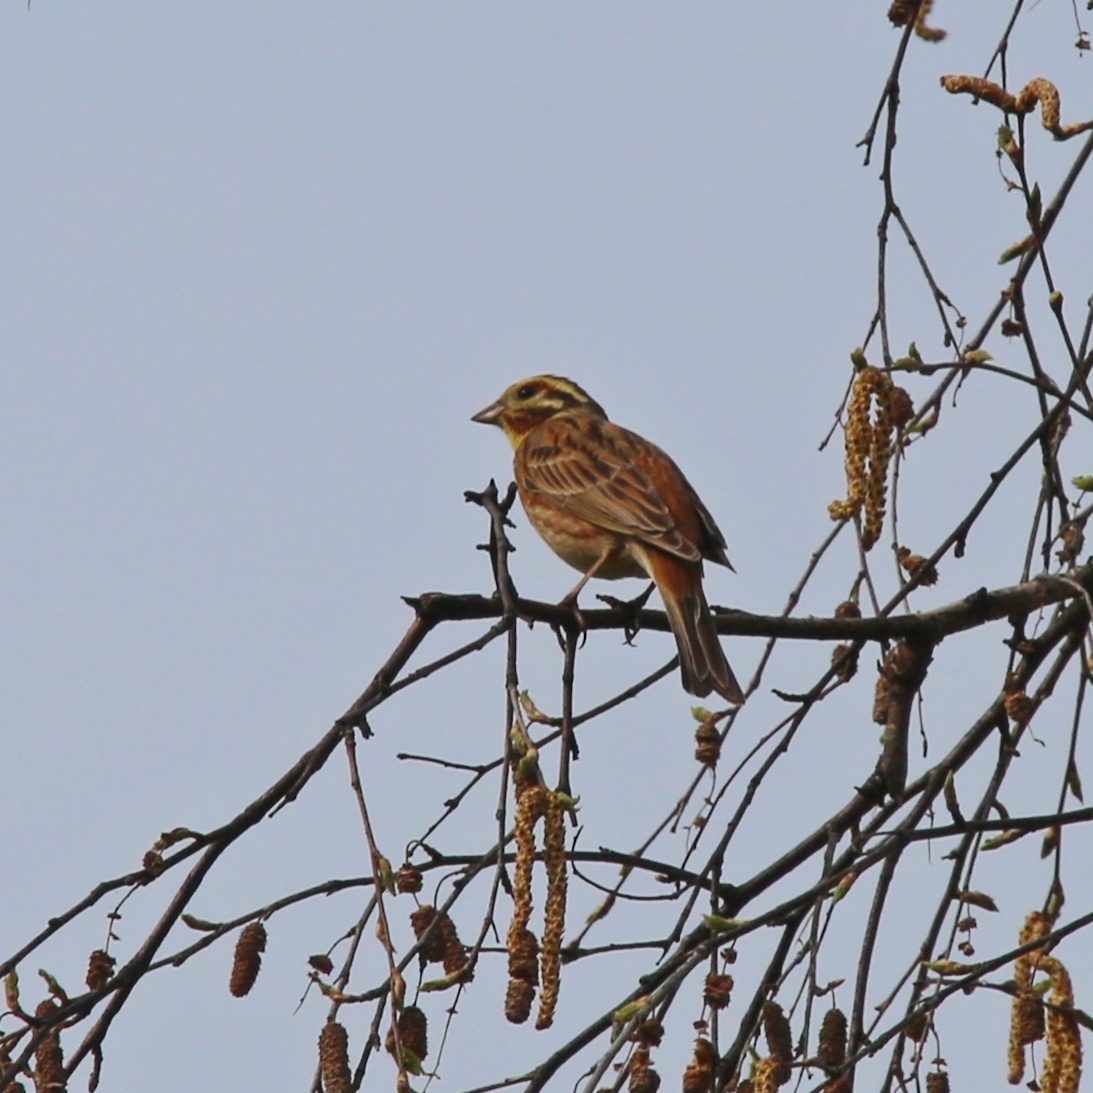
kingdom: Animalia
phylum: Chordata
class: Aves
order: Passeriformes
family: Emberizidae
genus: Emberiza
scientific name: Emberiza
